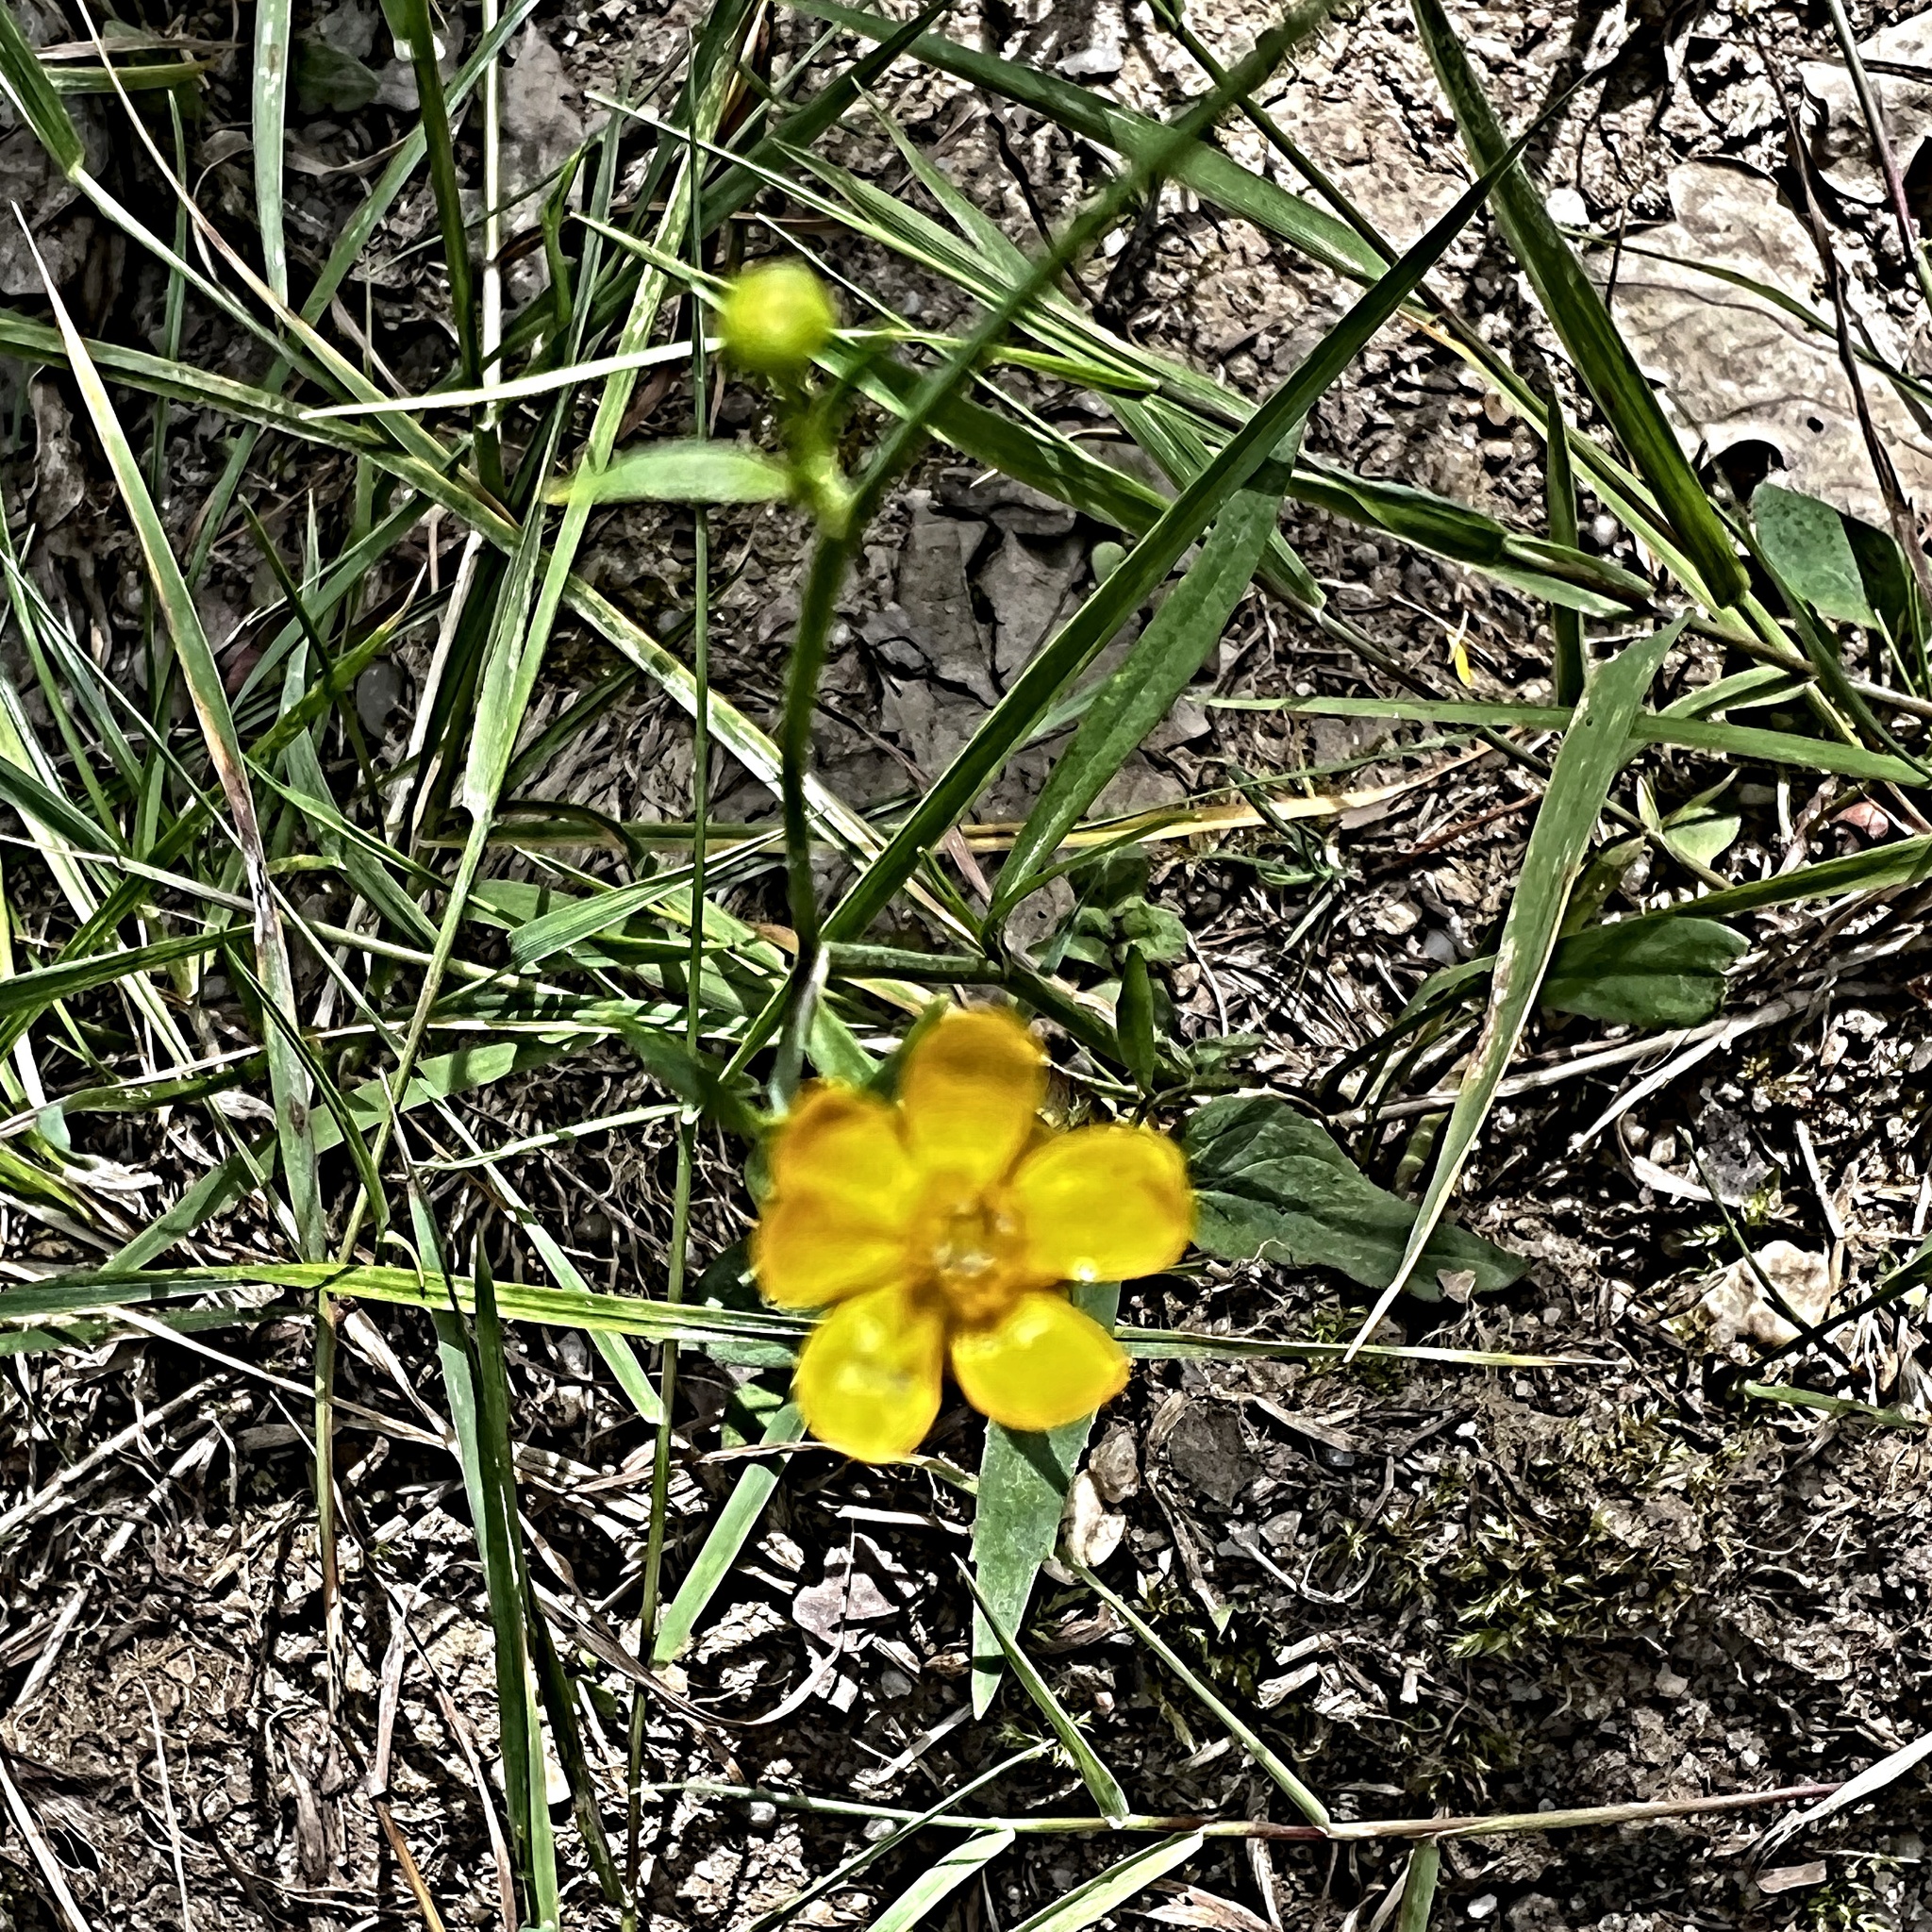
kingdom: Plantae
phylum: Tracheophyta
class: Magnoliopsida
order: Ranunculales
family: Ranunculaceae
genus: Ranunculus
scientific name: Ranunculus flammula
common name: Lesser spearwort
